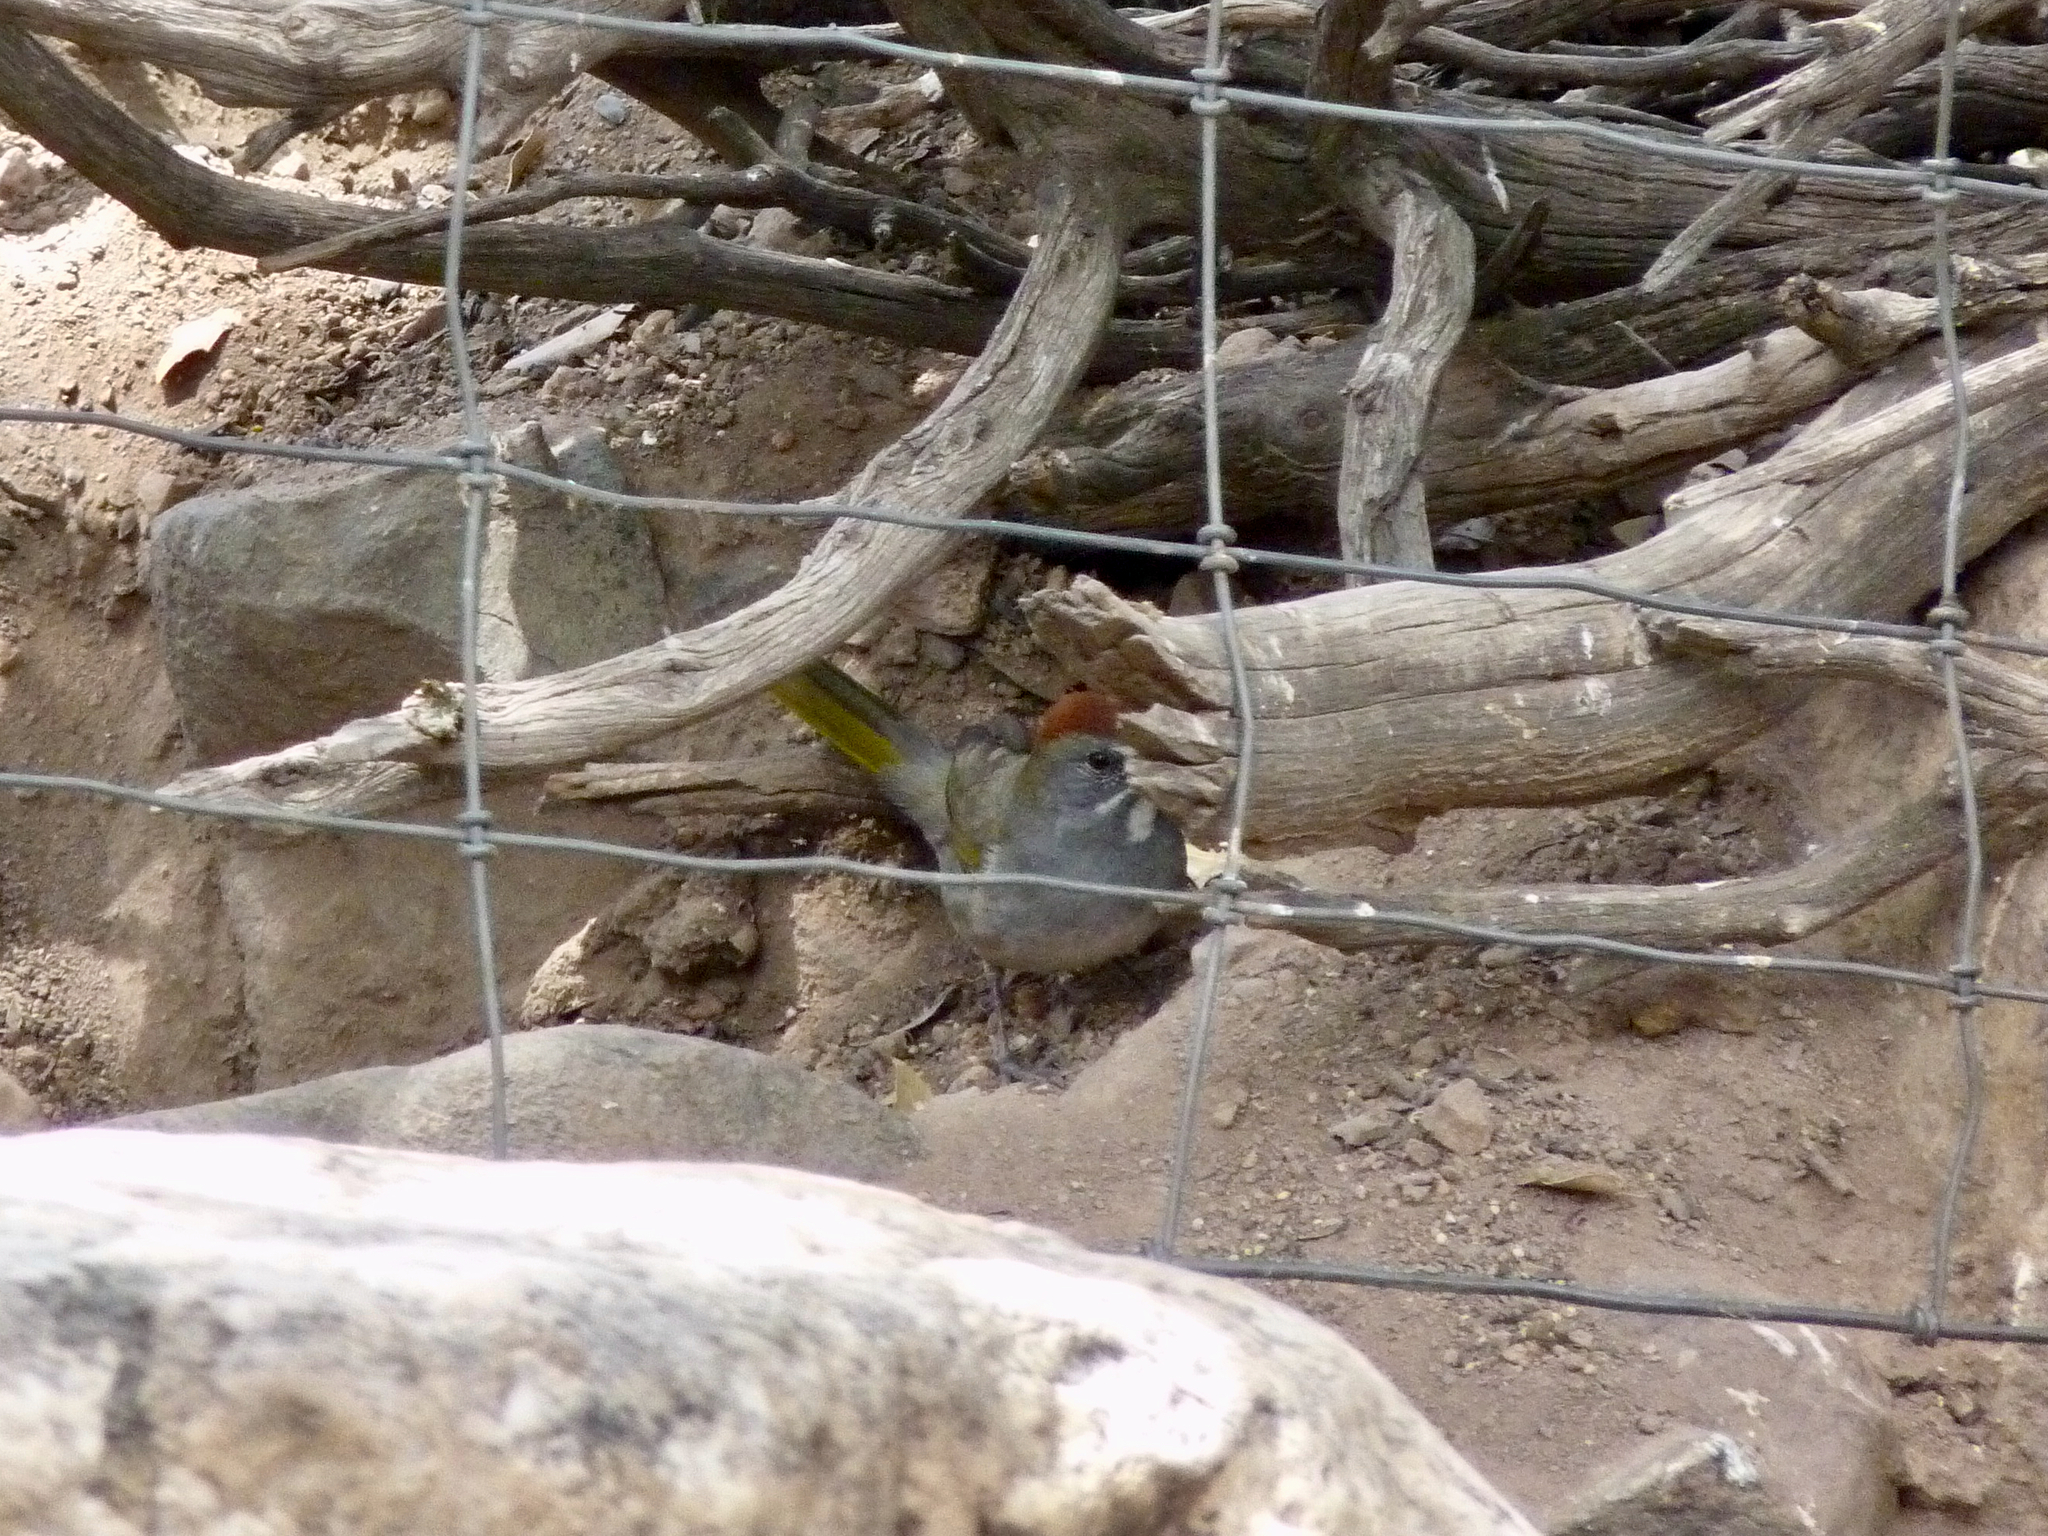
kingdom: Animalia
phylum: Chordata
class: Aves
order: Passeriformes
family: Passerellidae
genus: Pipilo
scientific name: Pipilo chlorurus
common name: Green-tailed towhee
